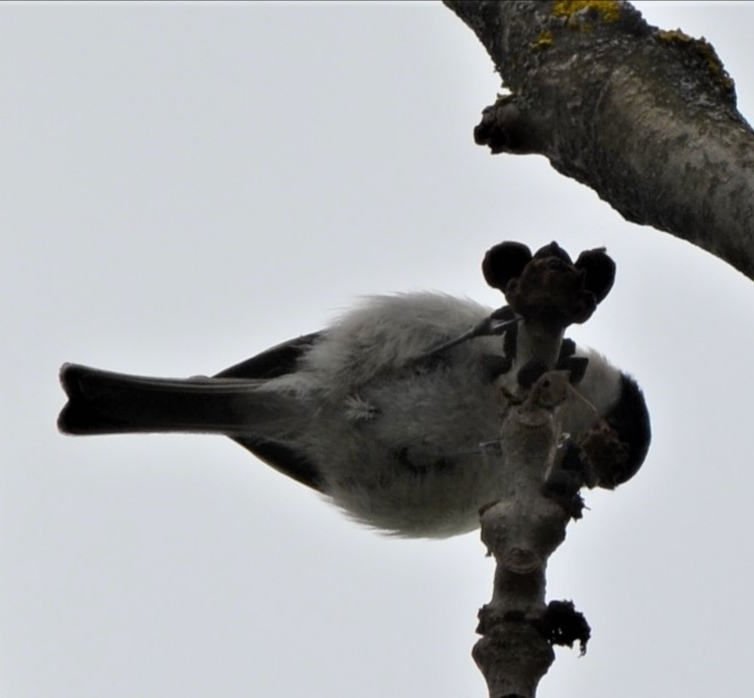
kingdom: Animalia
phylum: Chordata
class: Aves
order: Passeriformes
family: Paridae
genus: Poecile
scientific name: Poecile palustris
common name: Marsh tit
